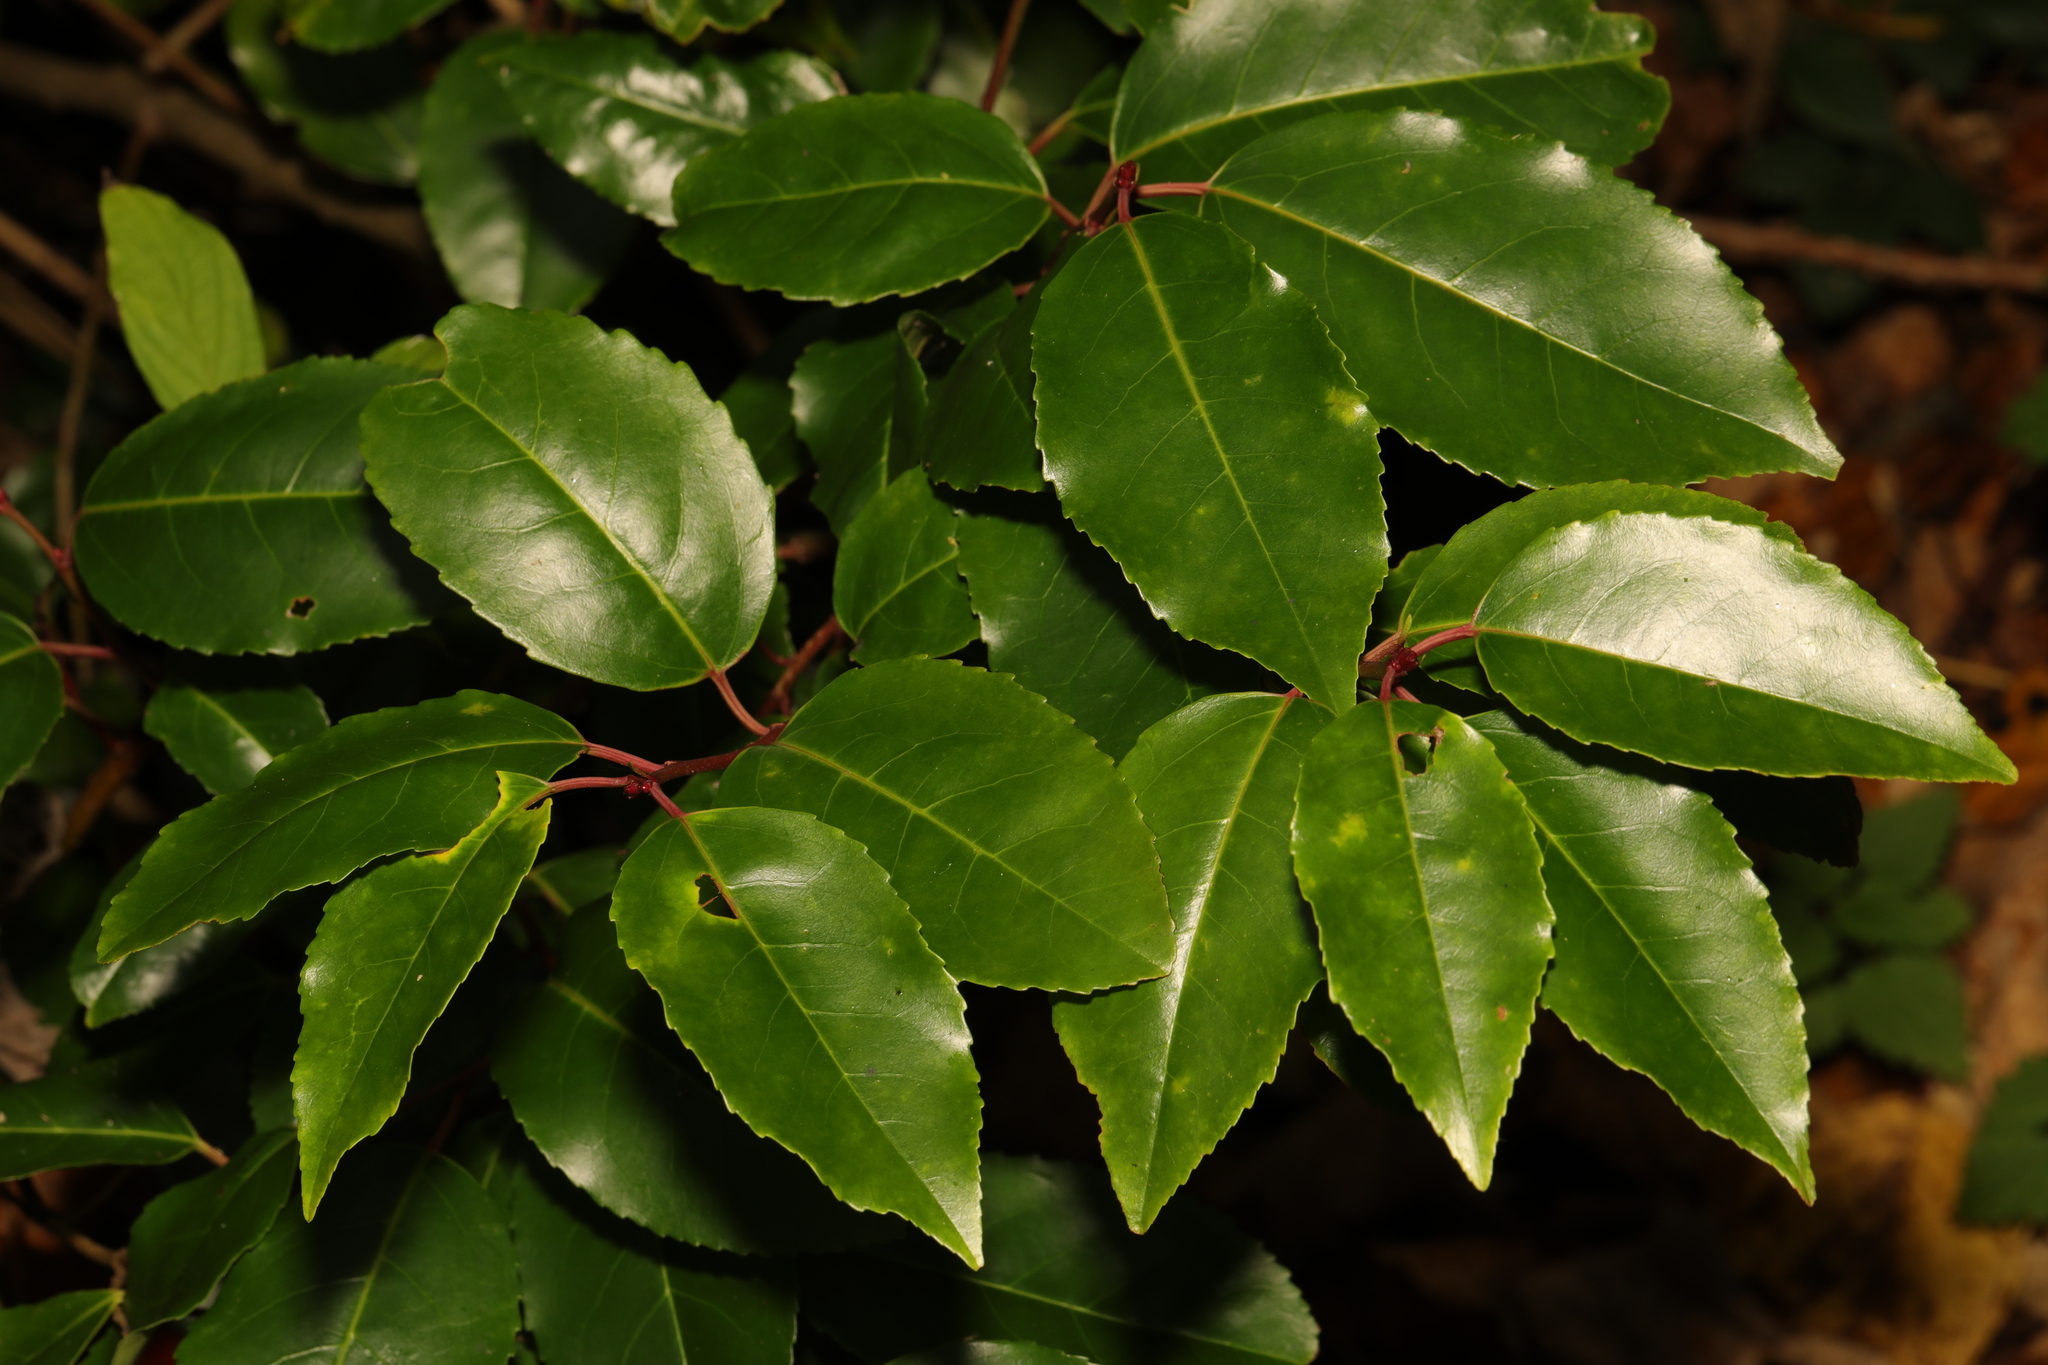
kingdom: Plantae
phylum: Tracheophyta
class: Magnoliopsida
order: Rosales
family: Rosaceae
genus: Prunus
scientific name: Prunus lusitanica
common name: Portugal laurel
